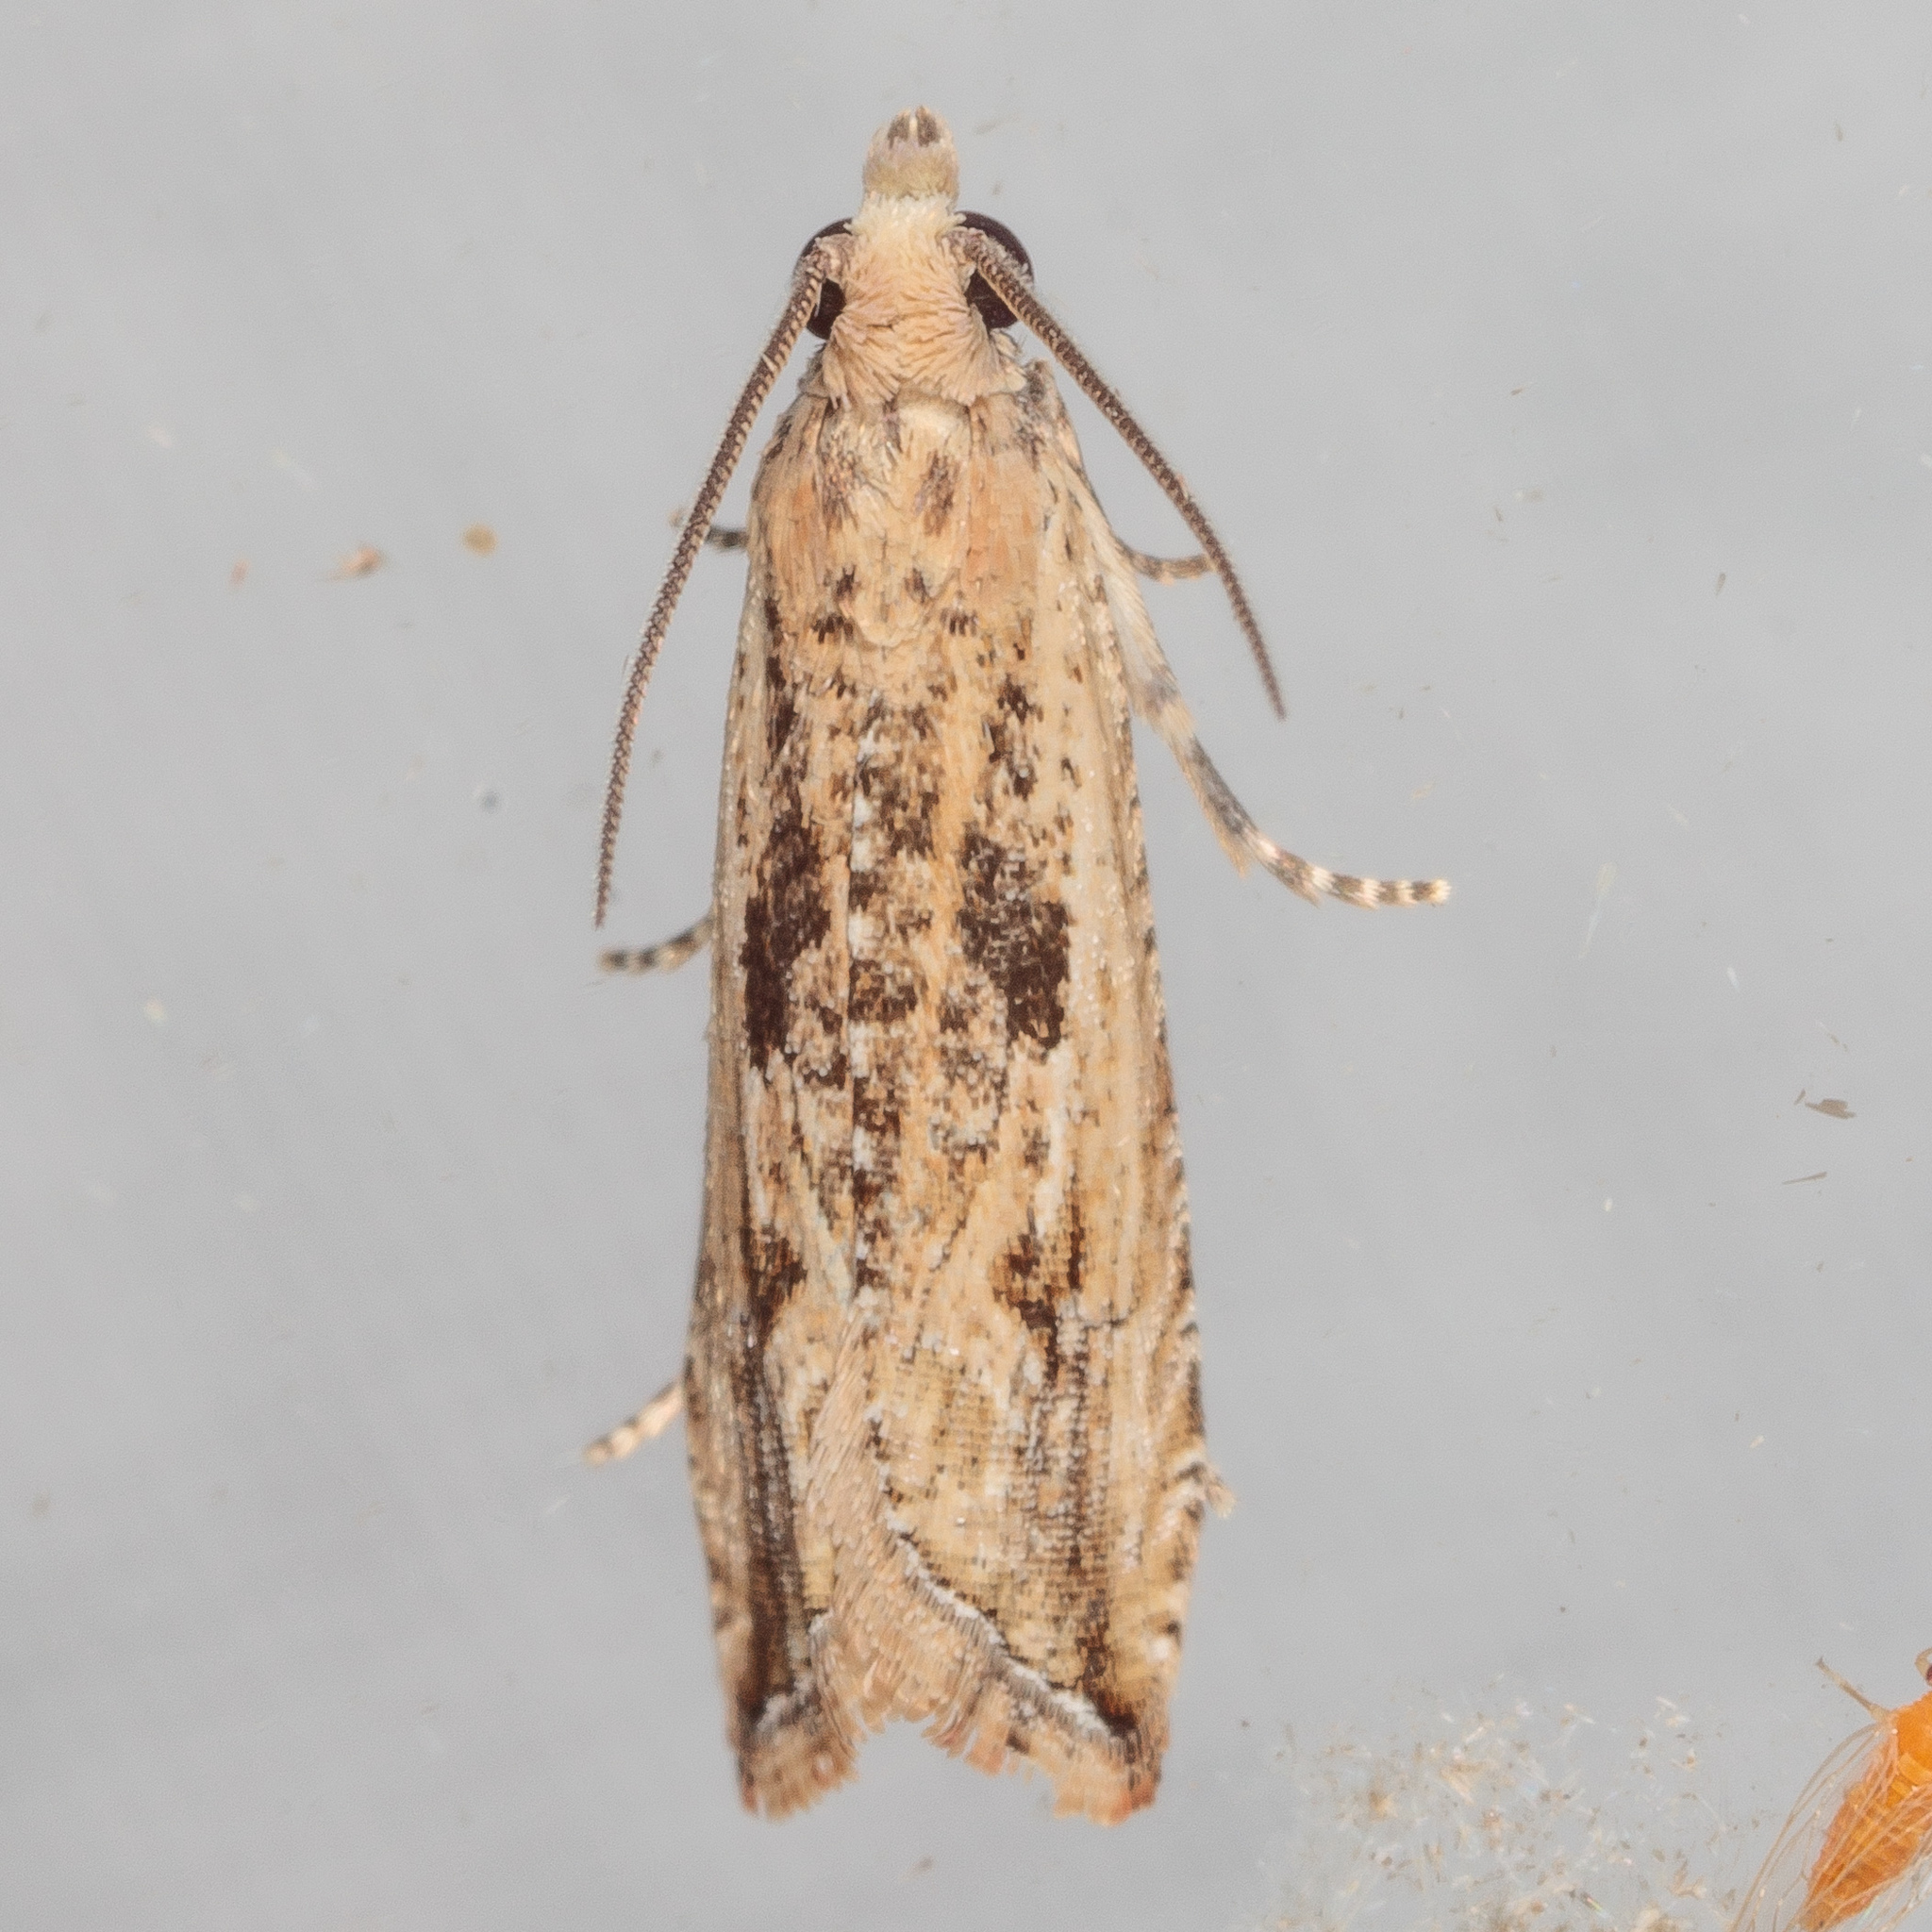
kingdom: Animalia
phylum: Arthropoda
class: Insecta
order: Lepidoptera
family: Tortricidae
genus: Bactra
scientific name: Bactra verutana
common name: Javelin moth
